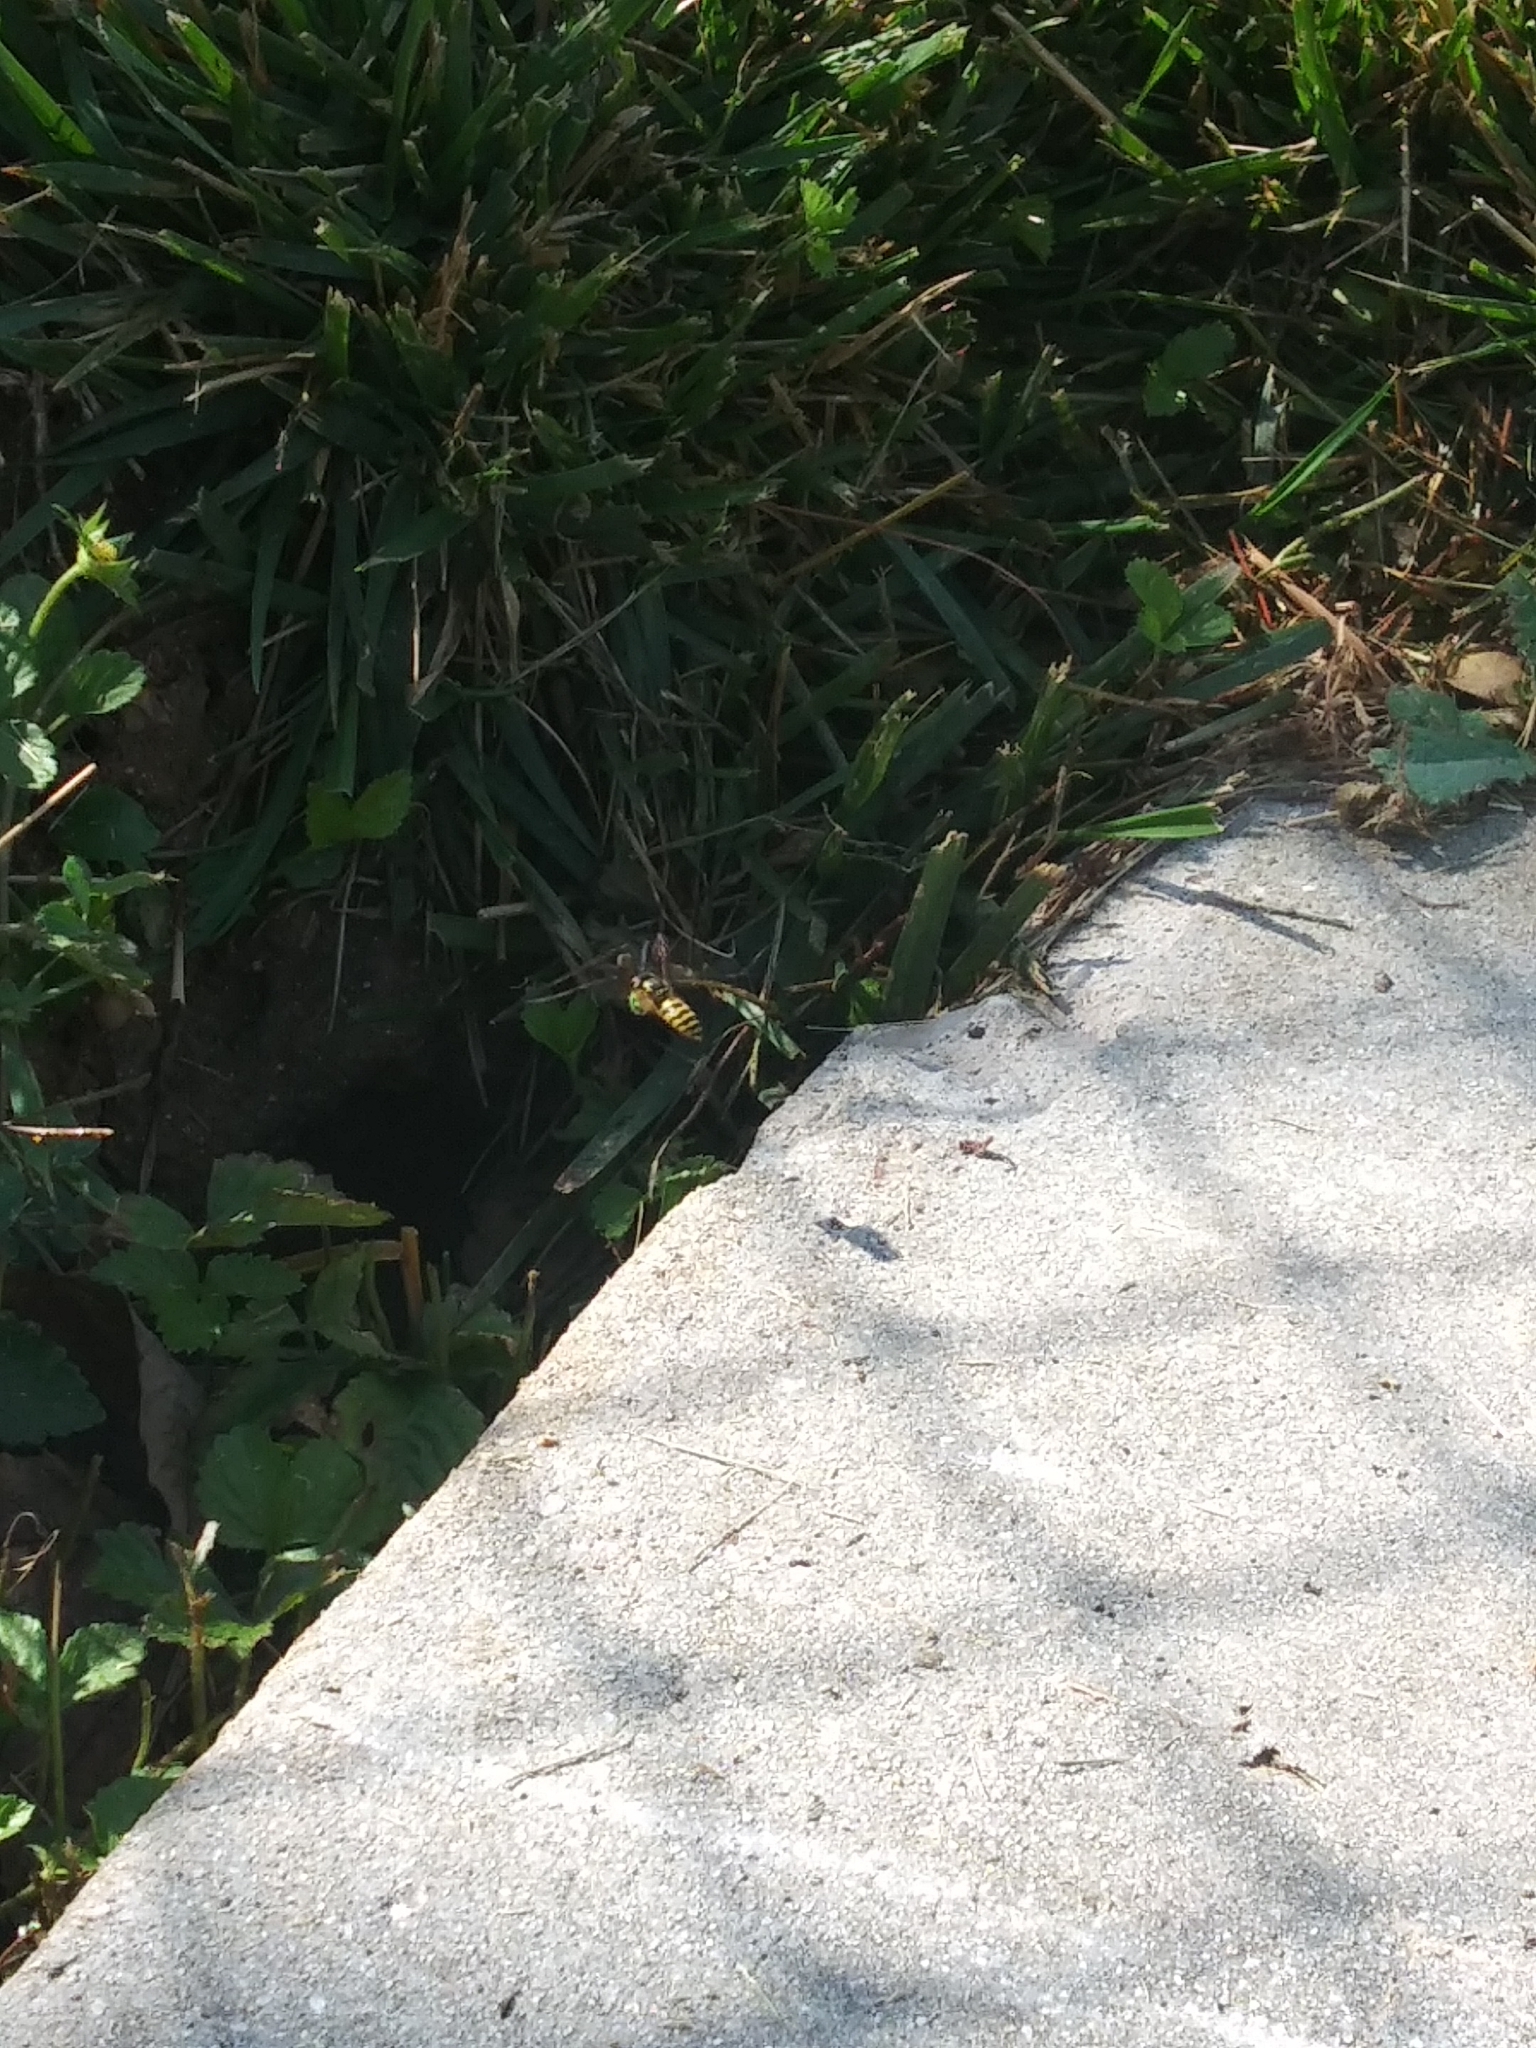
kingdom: Animalia
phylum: Arthropoda
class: Insecta
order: Hymenoptera
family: Vespidae
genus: Vespula
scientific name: Vespula
